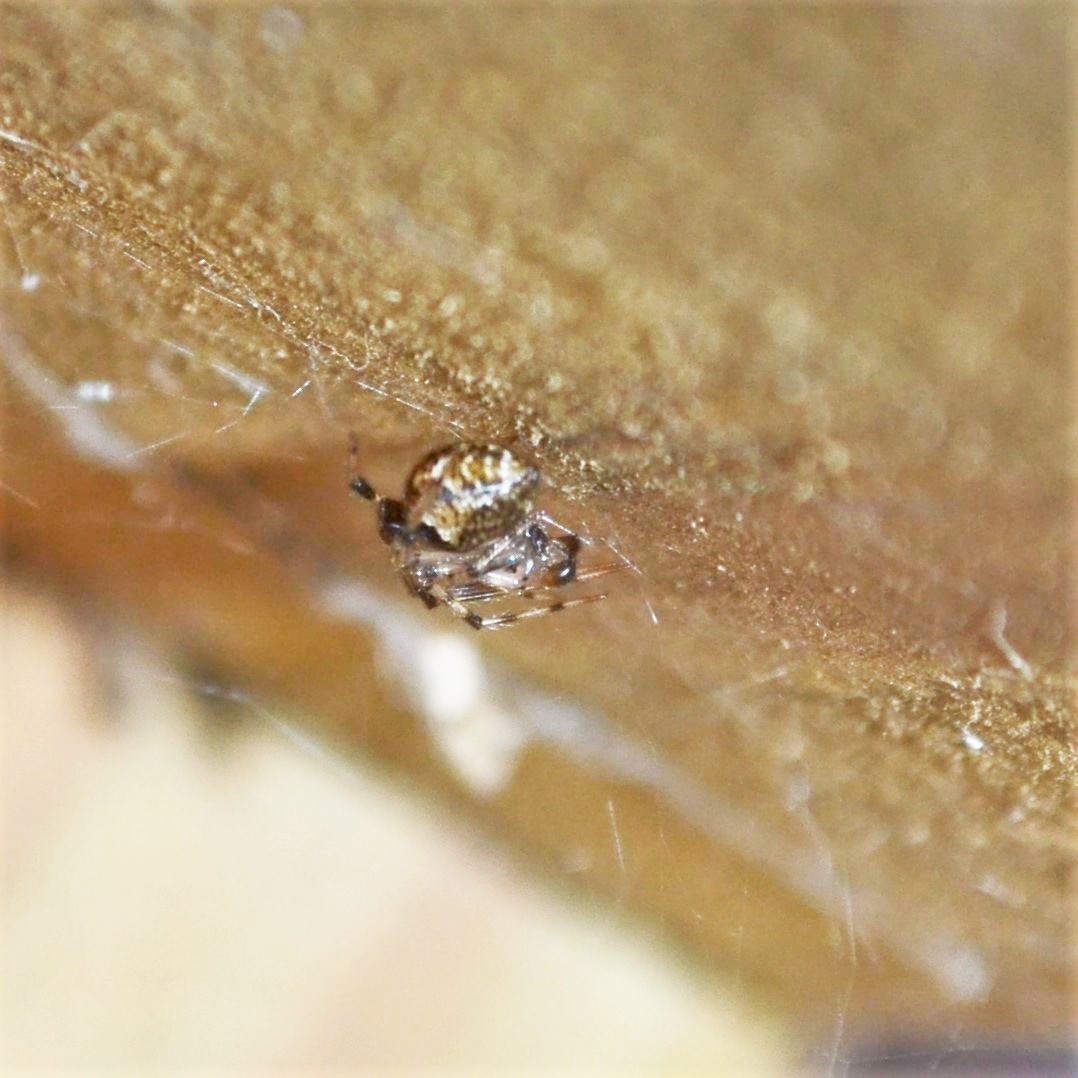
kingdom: Animalia
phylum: Arthropoda
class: Arachnida
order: Araneae
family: Theridiidae
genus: Parasteatoda
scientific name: Parasteatoda tepidariorum
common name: Common house spider
